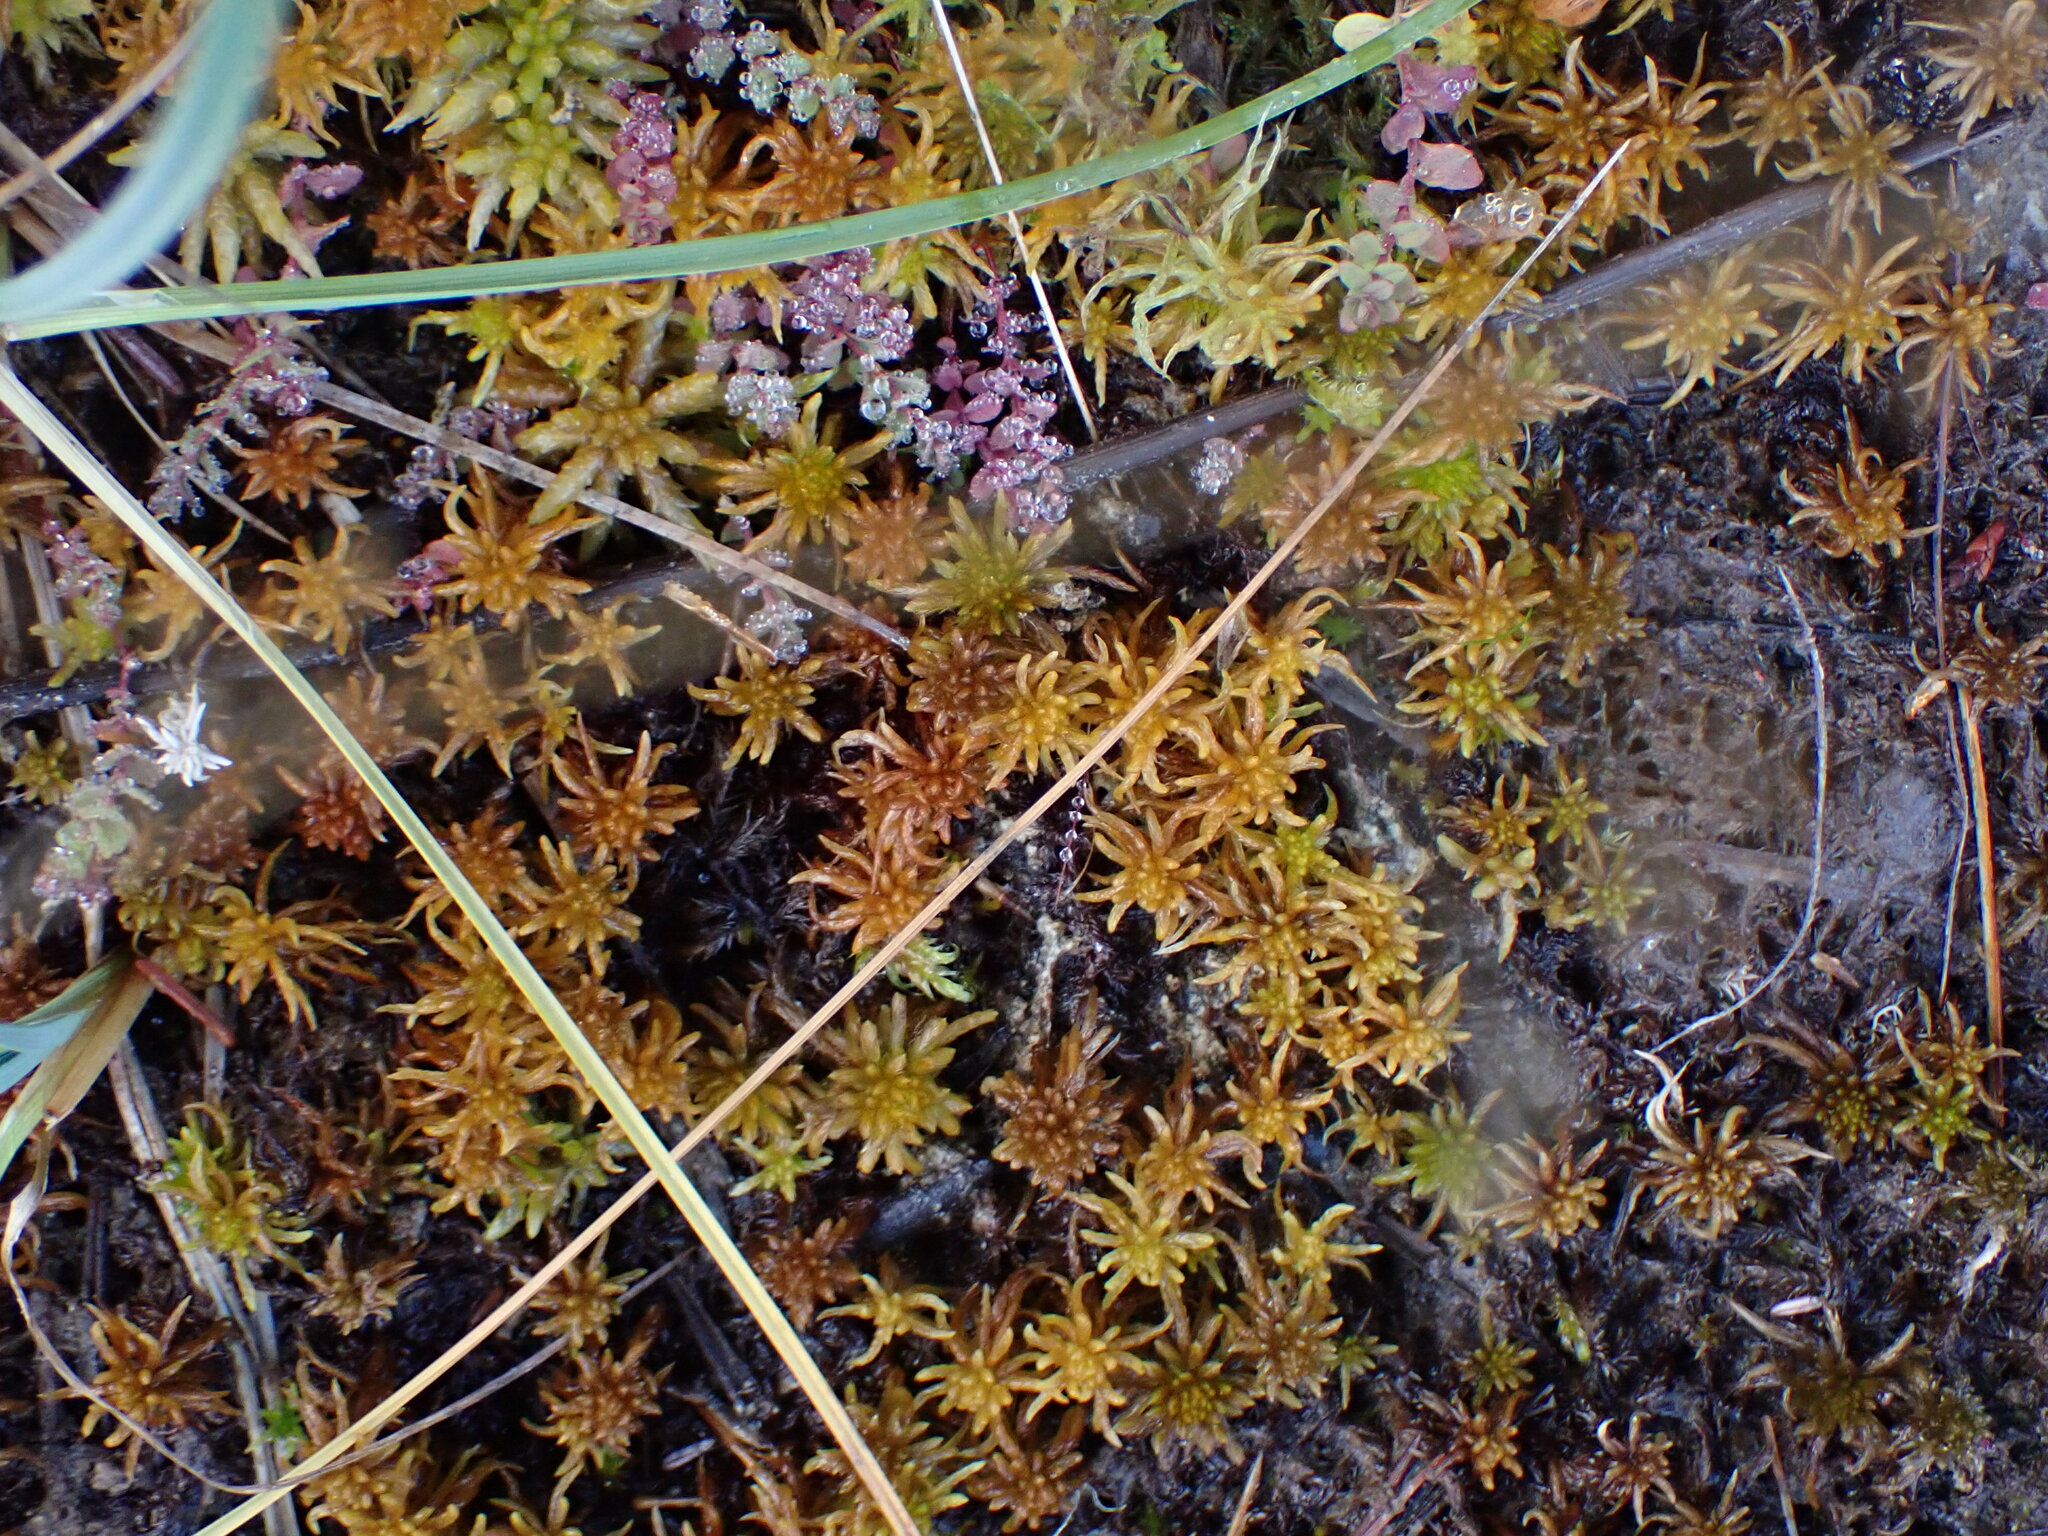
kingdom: Plantae
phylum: Bryophyta
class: Sphagnopsida
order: Sphagnales
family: Sphagnaceae
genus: Sphagnum
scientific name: Sphagnum subsecundum
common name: Orange peat moss
